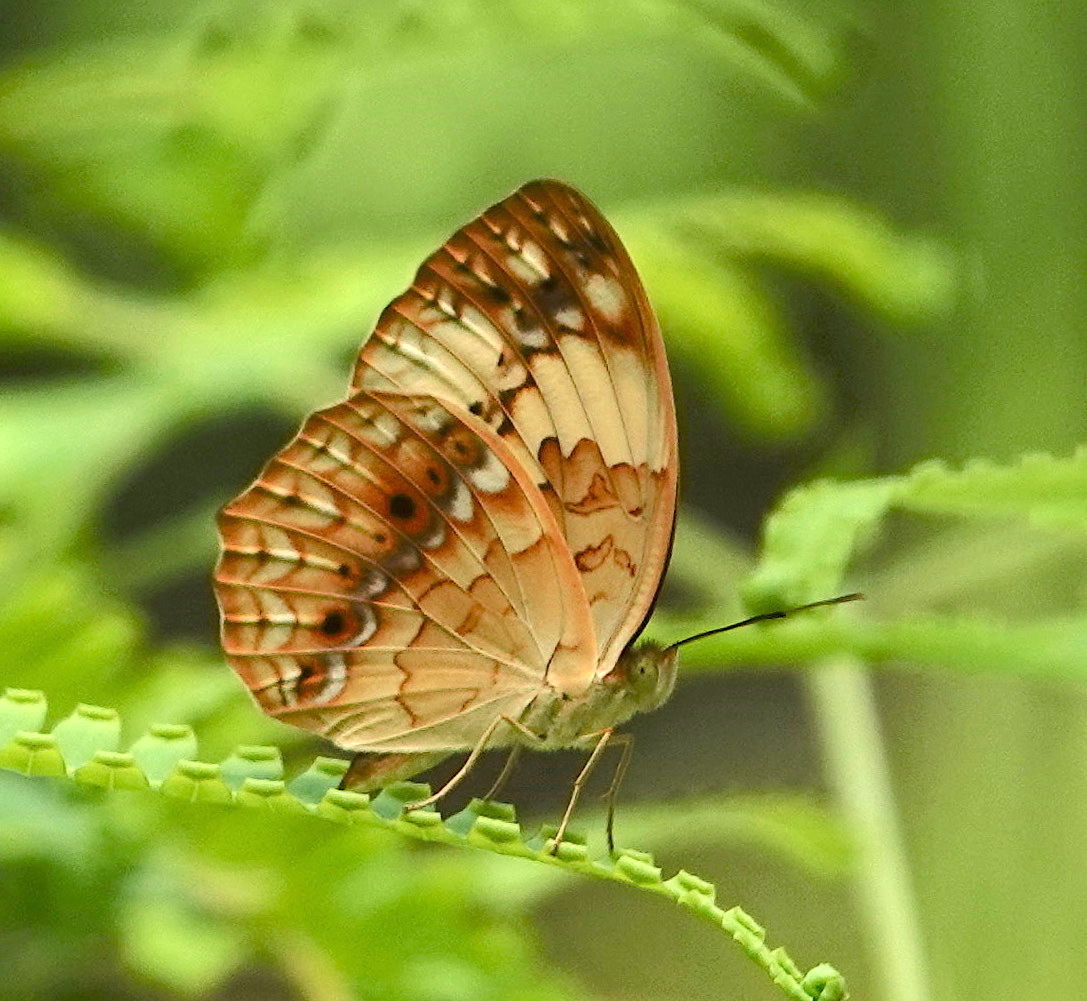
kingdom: Animalia
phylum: Arthropoda
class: Insecta
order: Lepidoptera
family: Nymphalidae
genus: Cupha
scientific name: Cupha erymanthis
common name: Rustic
